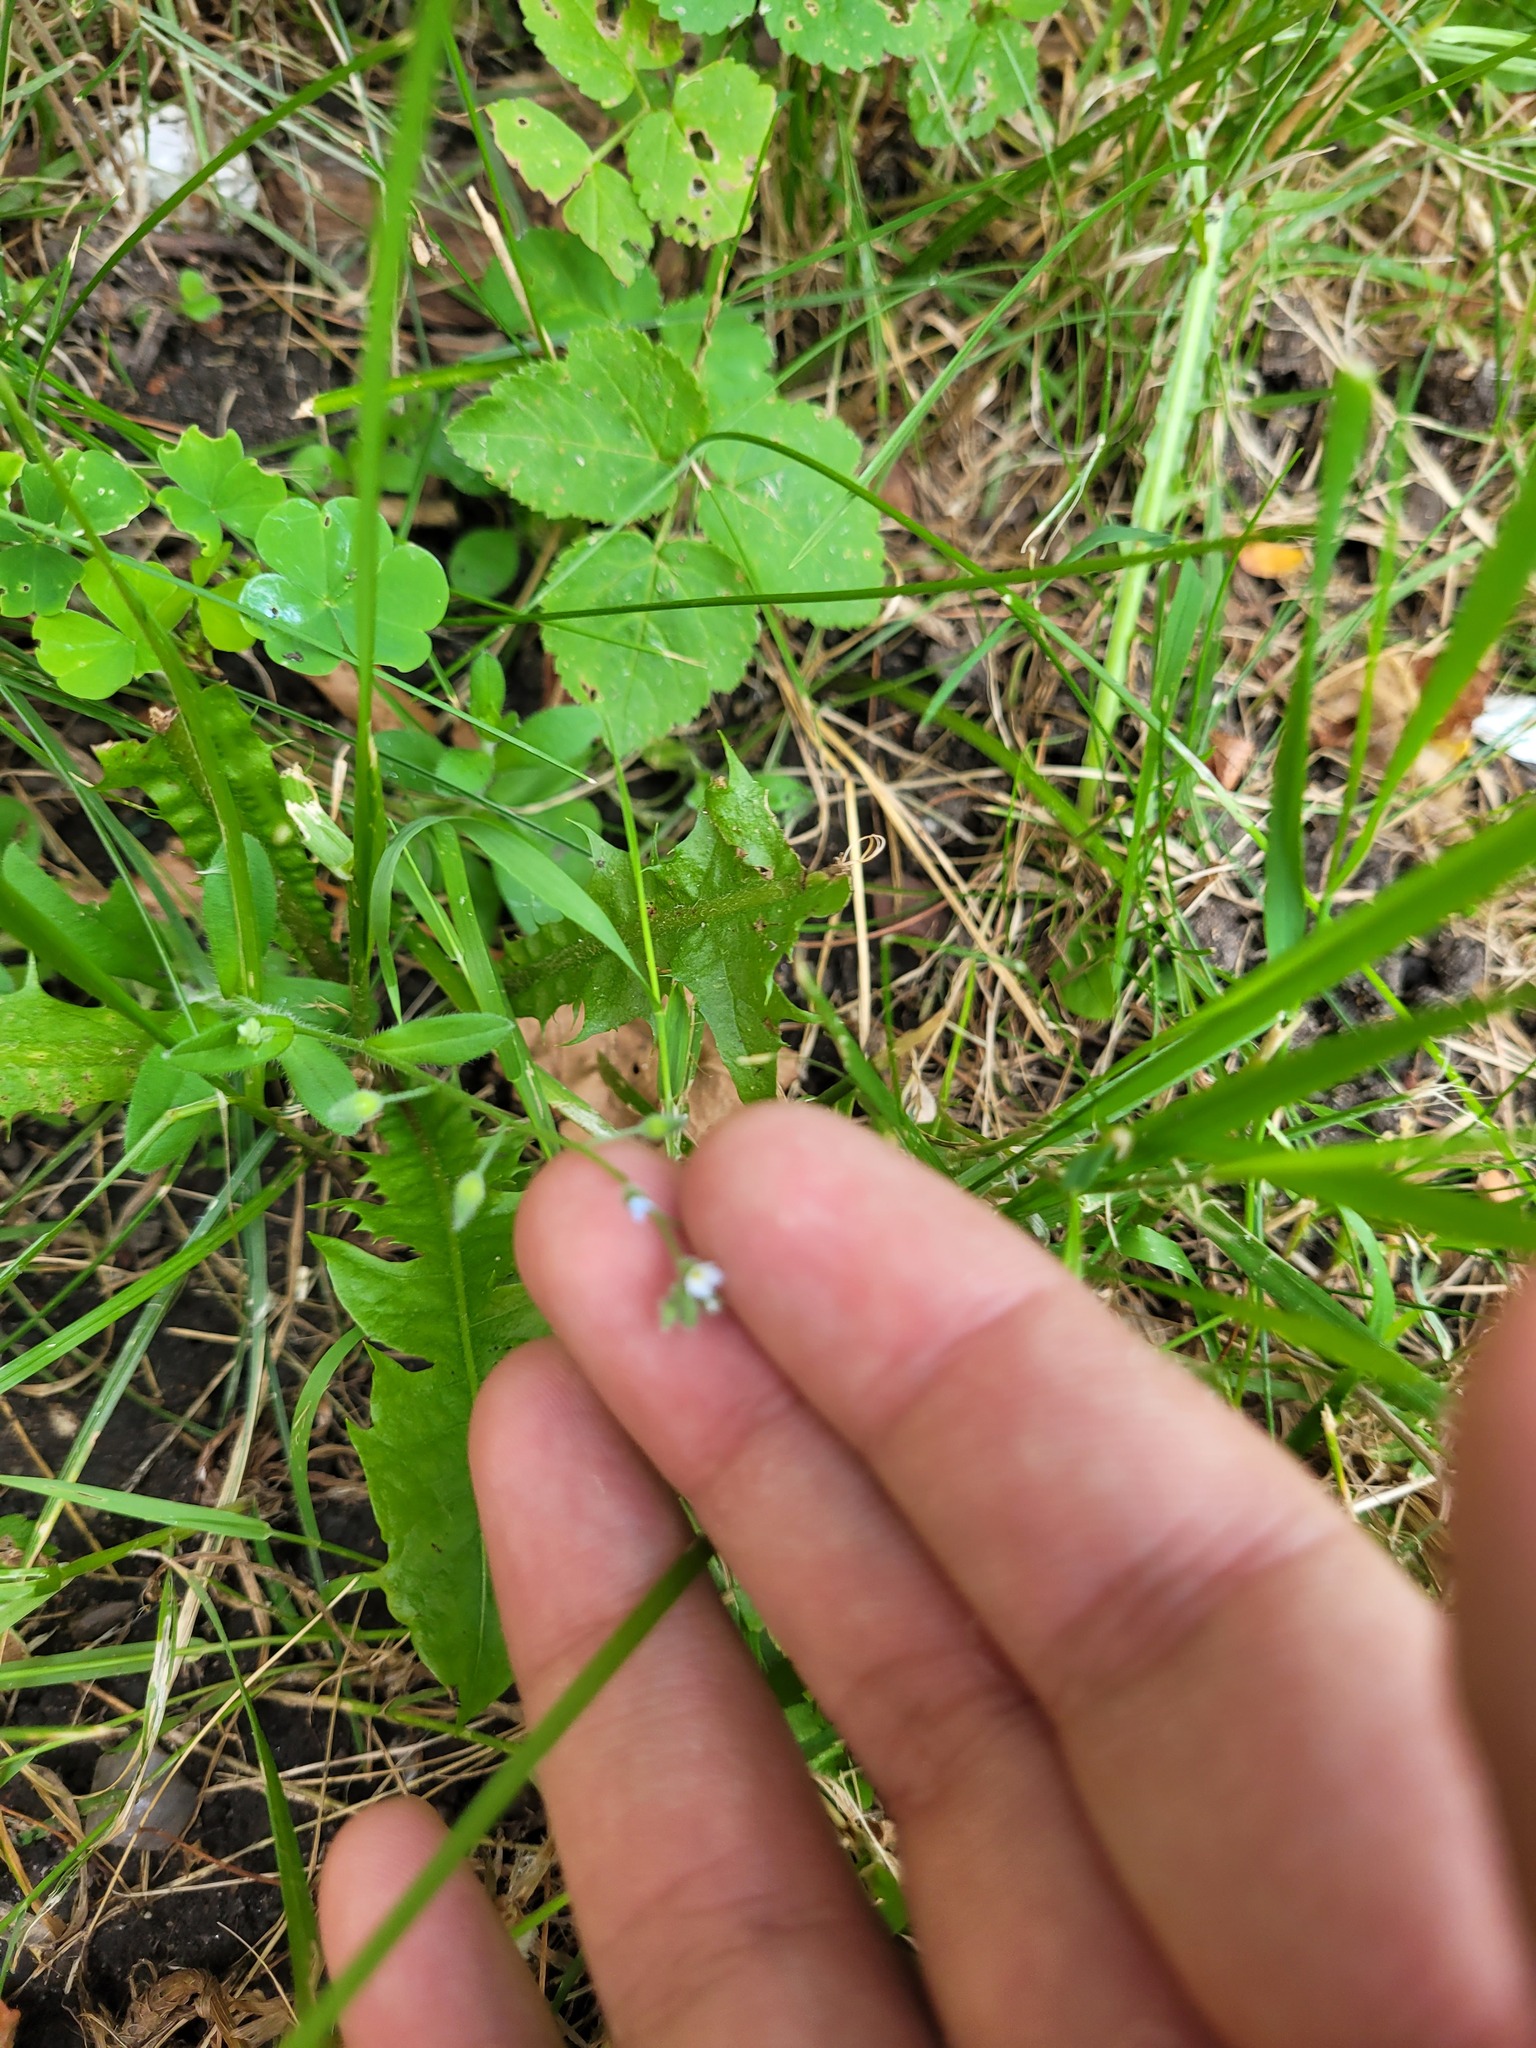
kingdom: Plantae
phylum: Tracheophyta
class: Magnoliopsida
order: Boraginales
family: Boraginaceae
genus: Myosotis
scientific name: Myosotis arvensis
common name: Field forget-me-not
